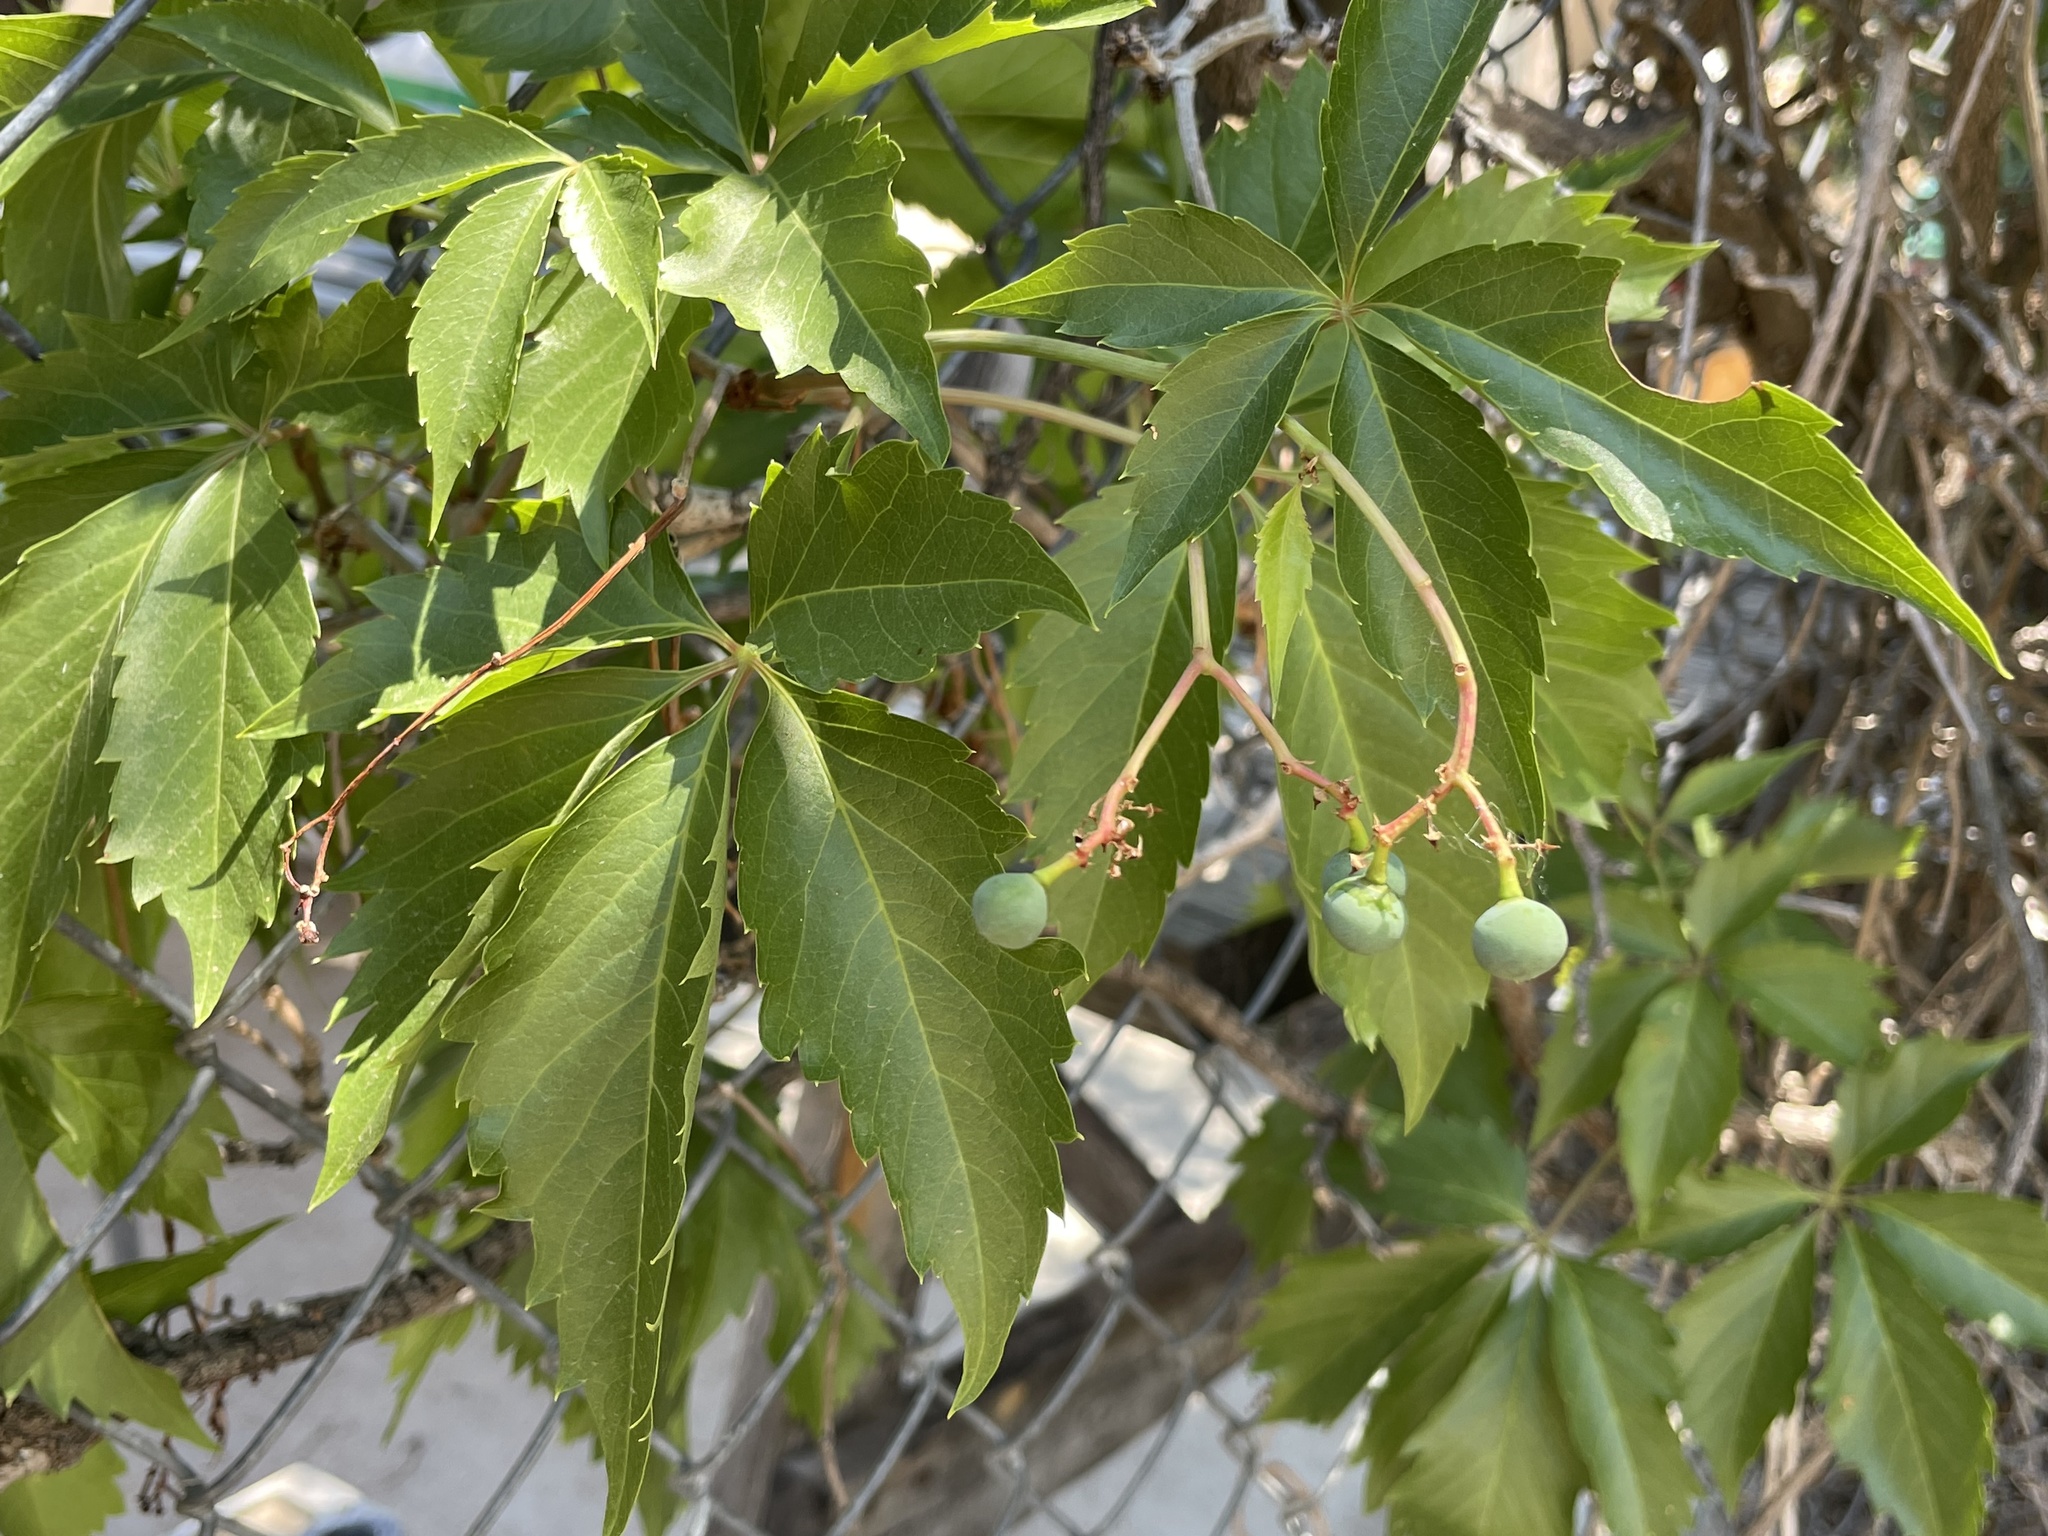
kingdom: Plantae
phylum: Tracheophyta
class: Magnoliopsida
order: Vitales
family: Vitaceae
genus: Parthenocissus
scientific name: Parthenocissus quinquefolia
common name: Virginia-creeper
